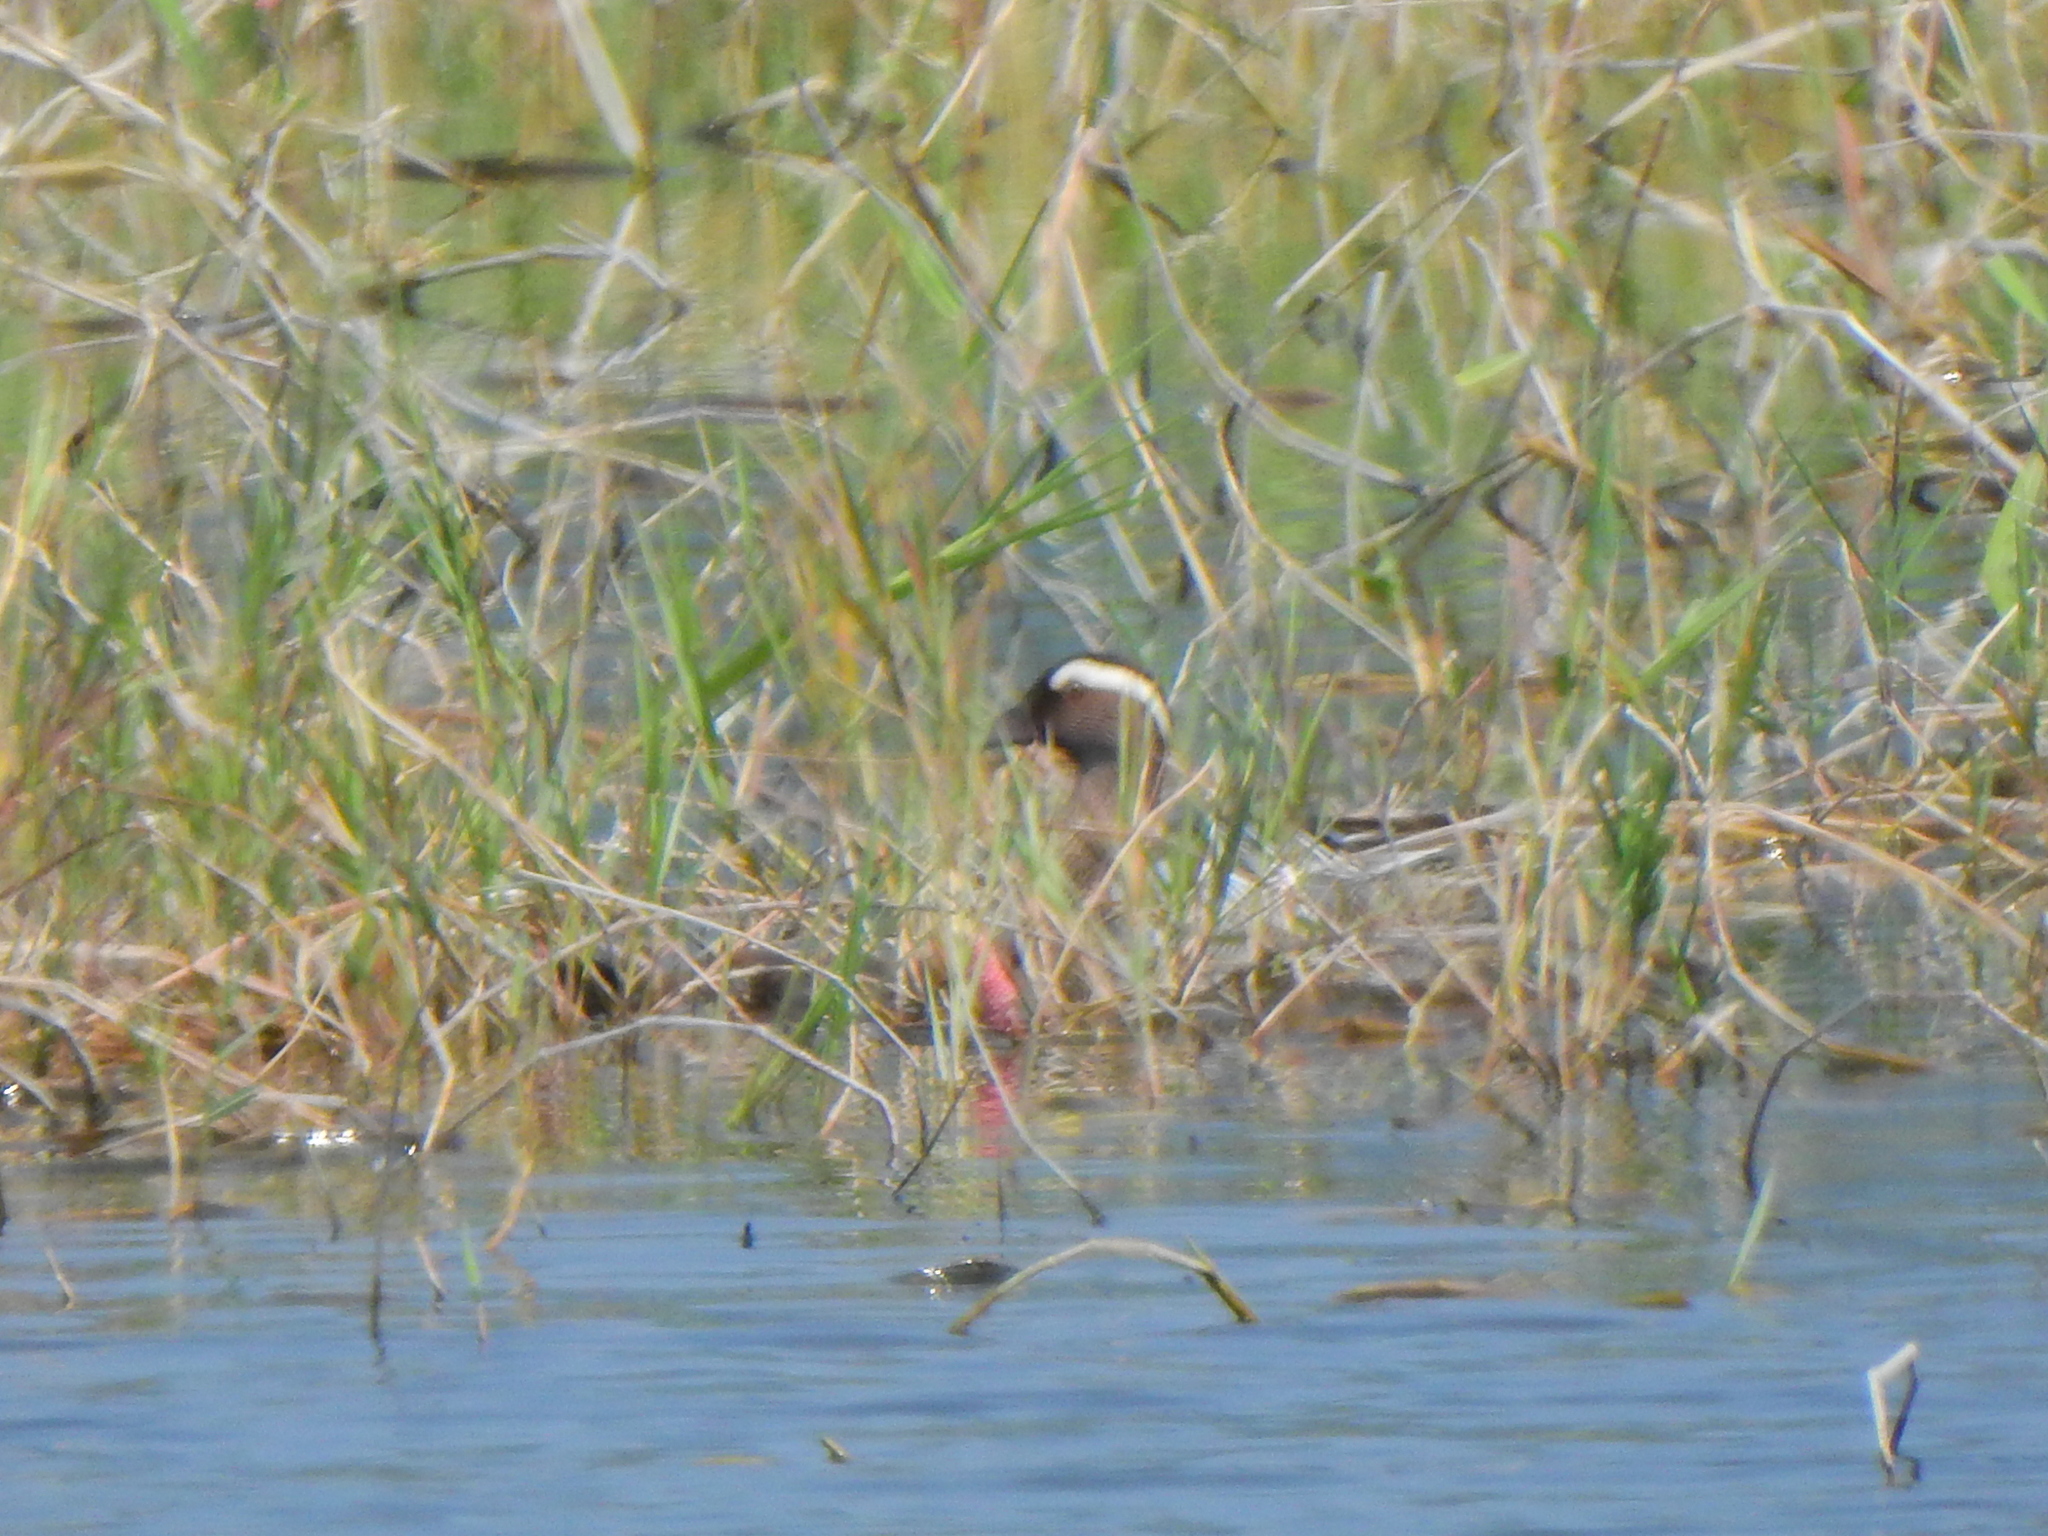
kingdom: Animalia
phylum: Chordata
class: Aves
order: Anseriformes
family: Anatidae
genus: Spatula
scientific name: Spatula querquedula
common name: Garganey
